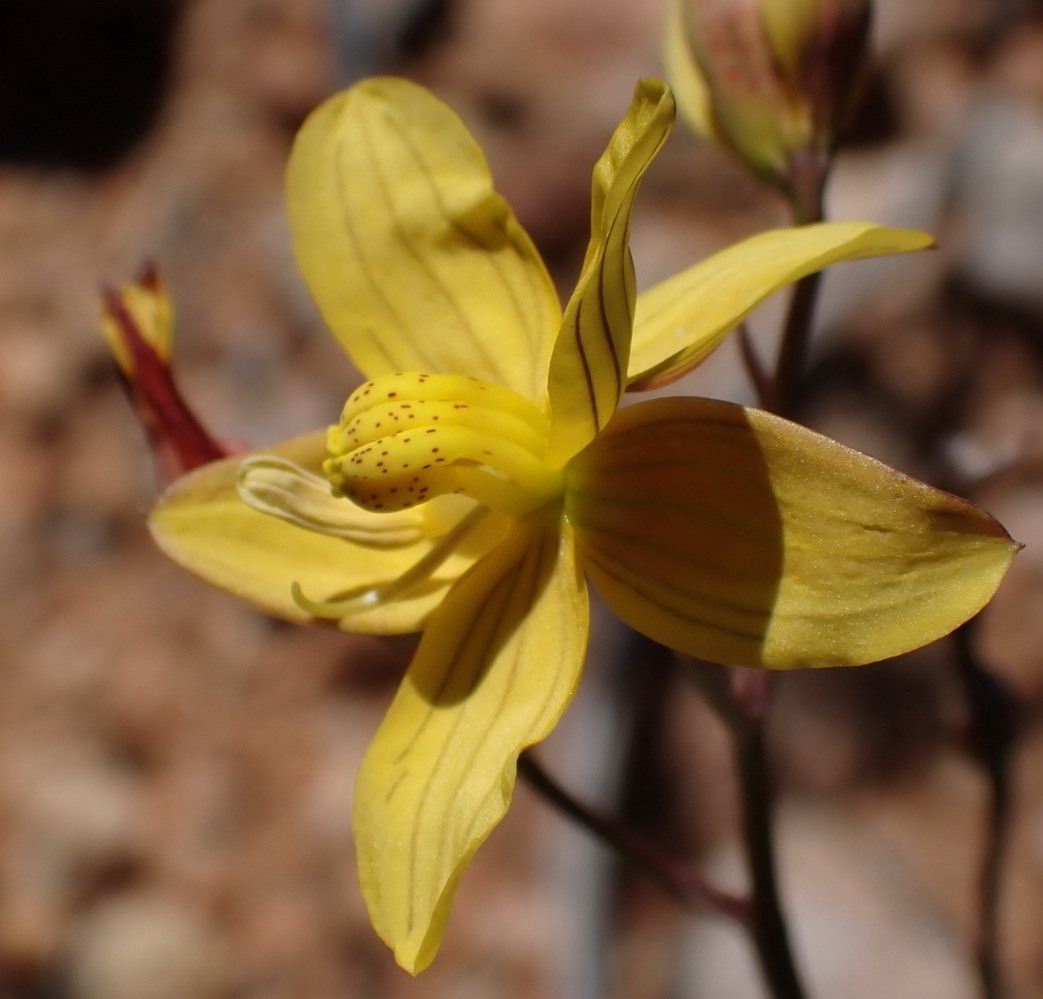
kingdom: Plantae
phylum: Tracheophyta
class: Liliopsida
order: Asparagales
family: Tecophilaeaceae
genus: Cyanella
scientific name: Cyanella lutea
